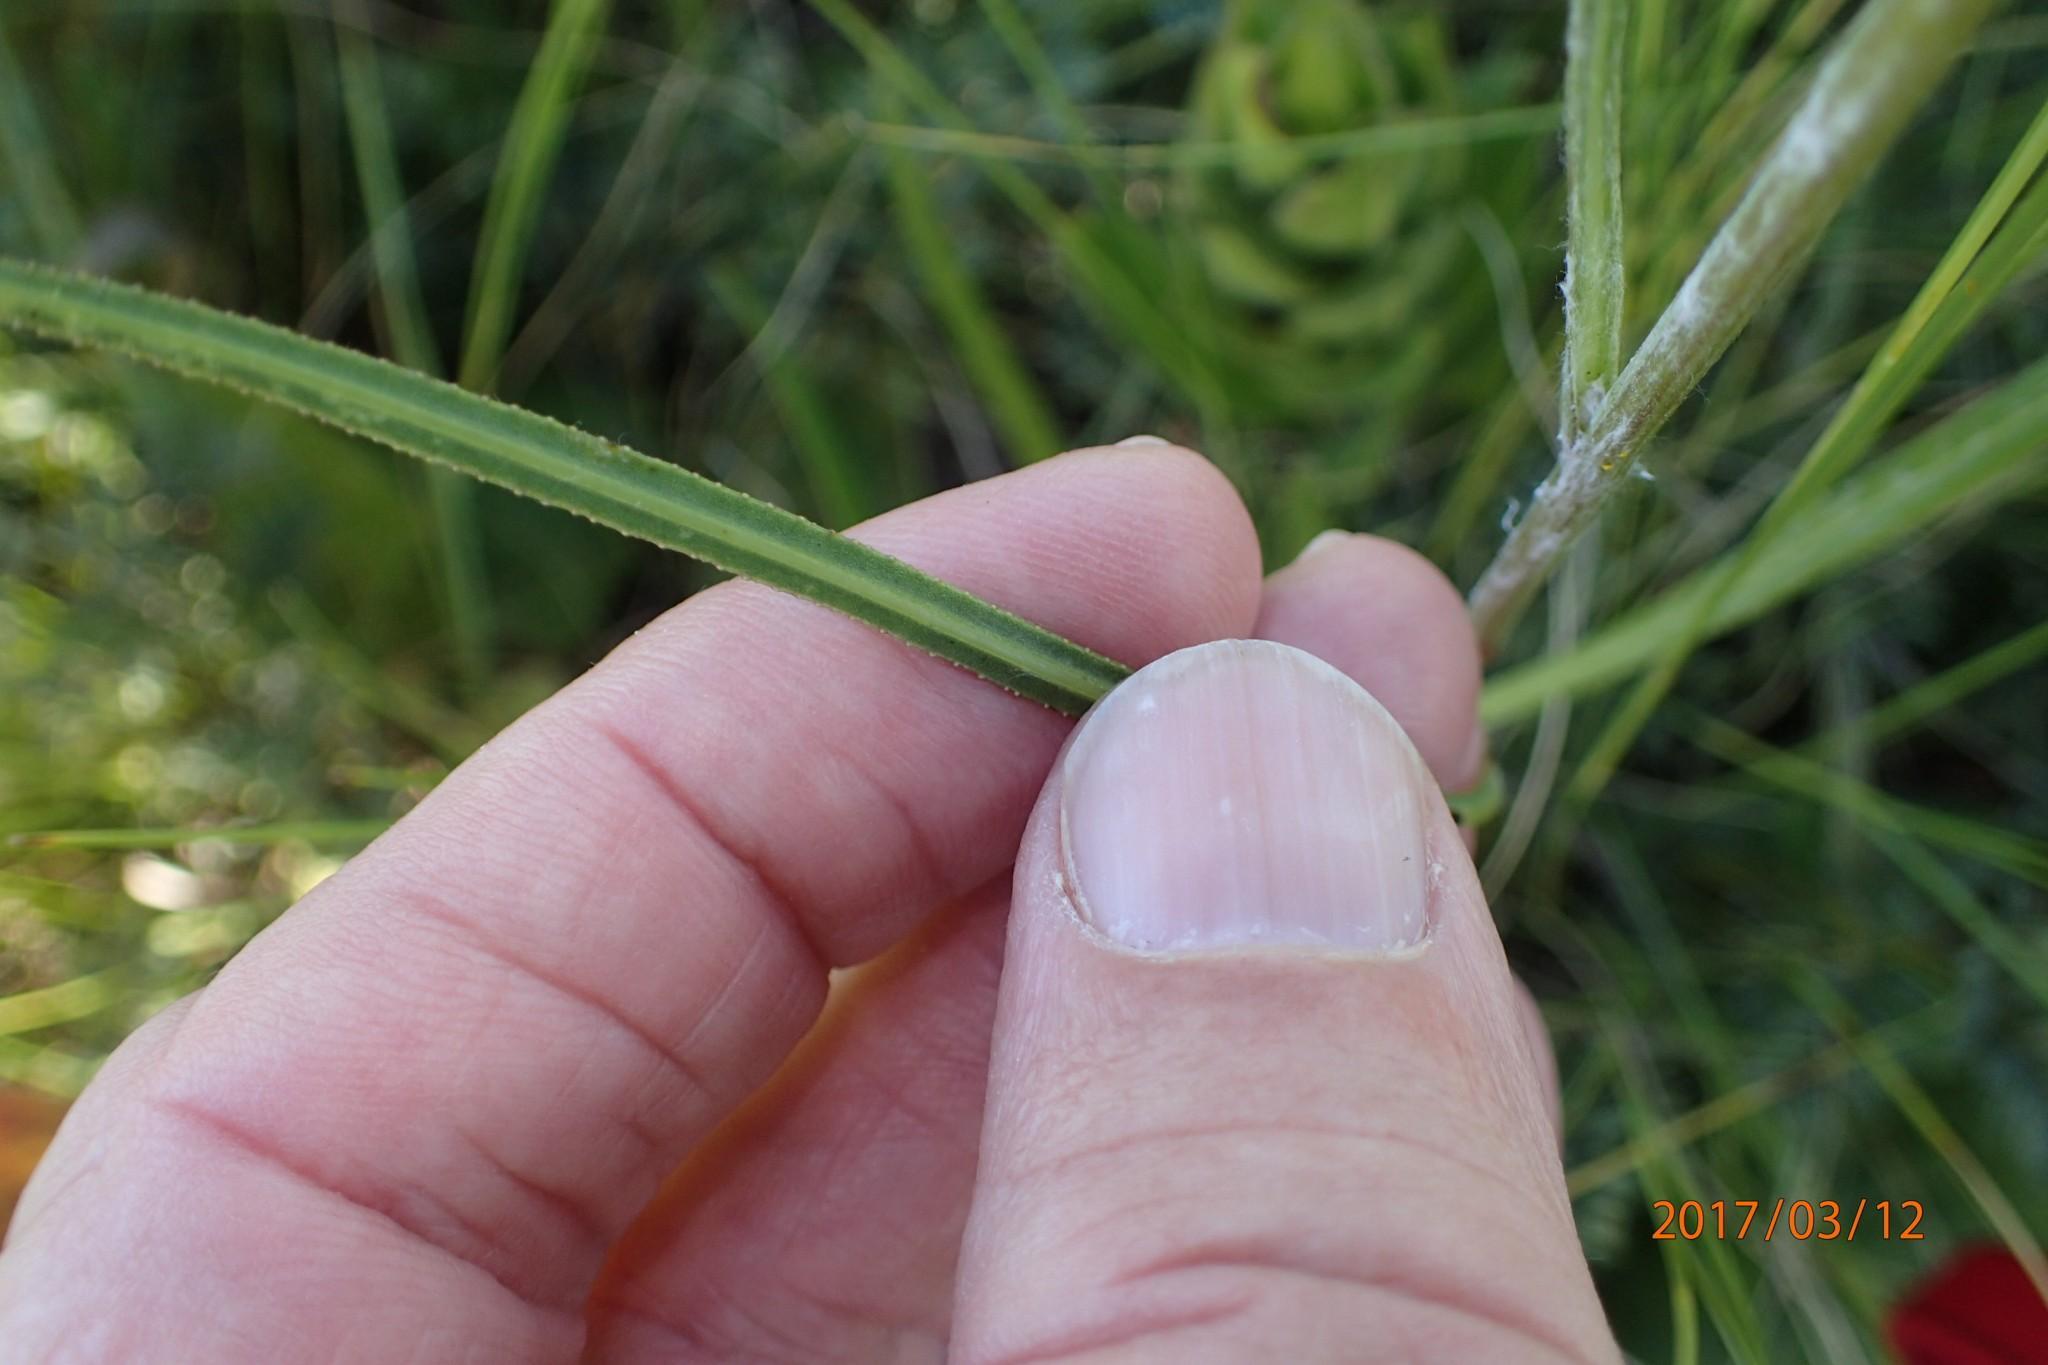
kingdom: Plantae
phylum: Tracheophyta
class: Magnoliopsida
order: Asterales
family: Asteraceae
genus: Senecio
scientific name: Senecio dregeanus
